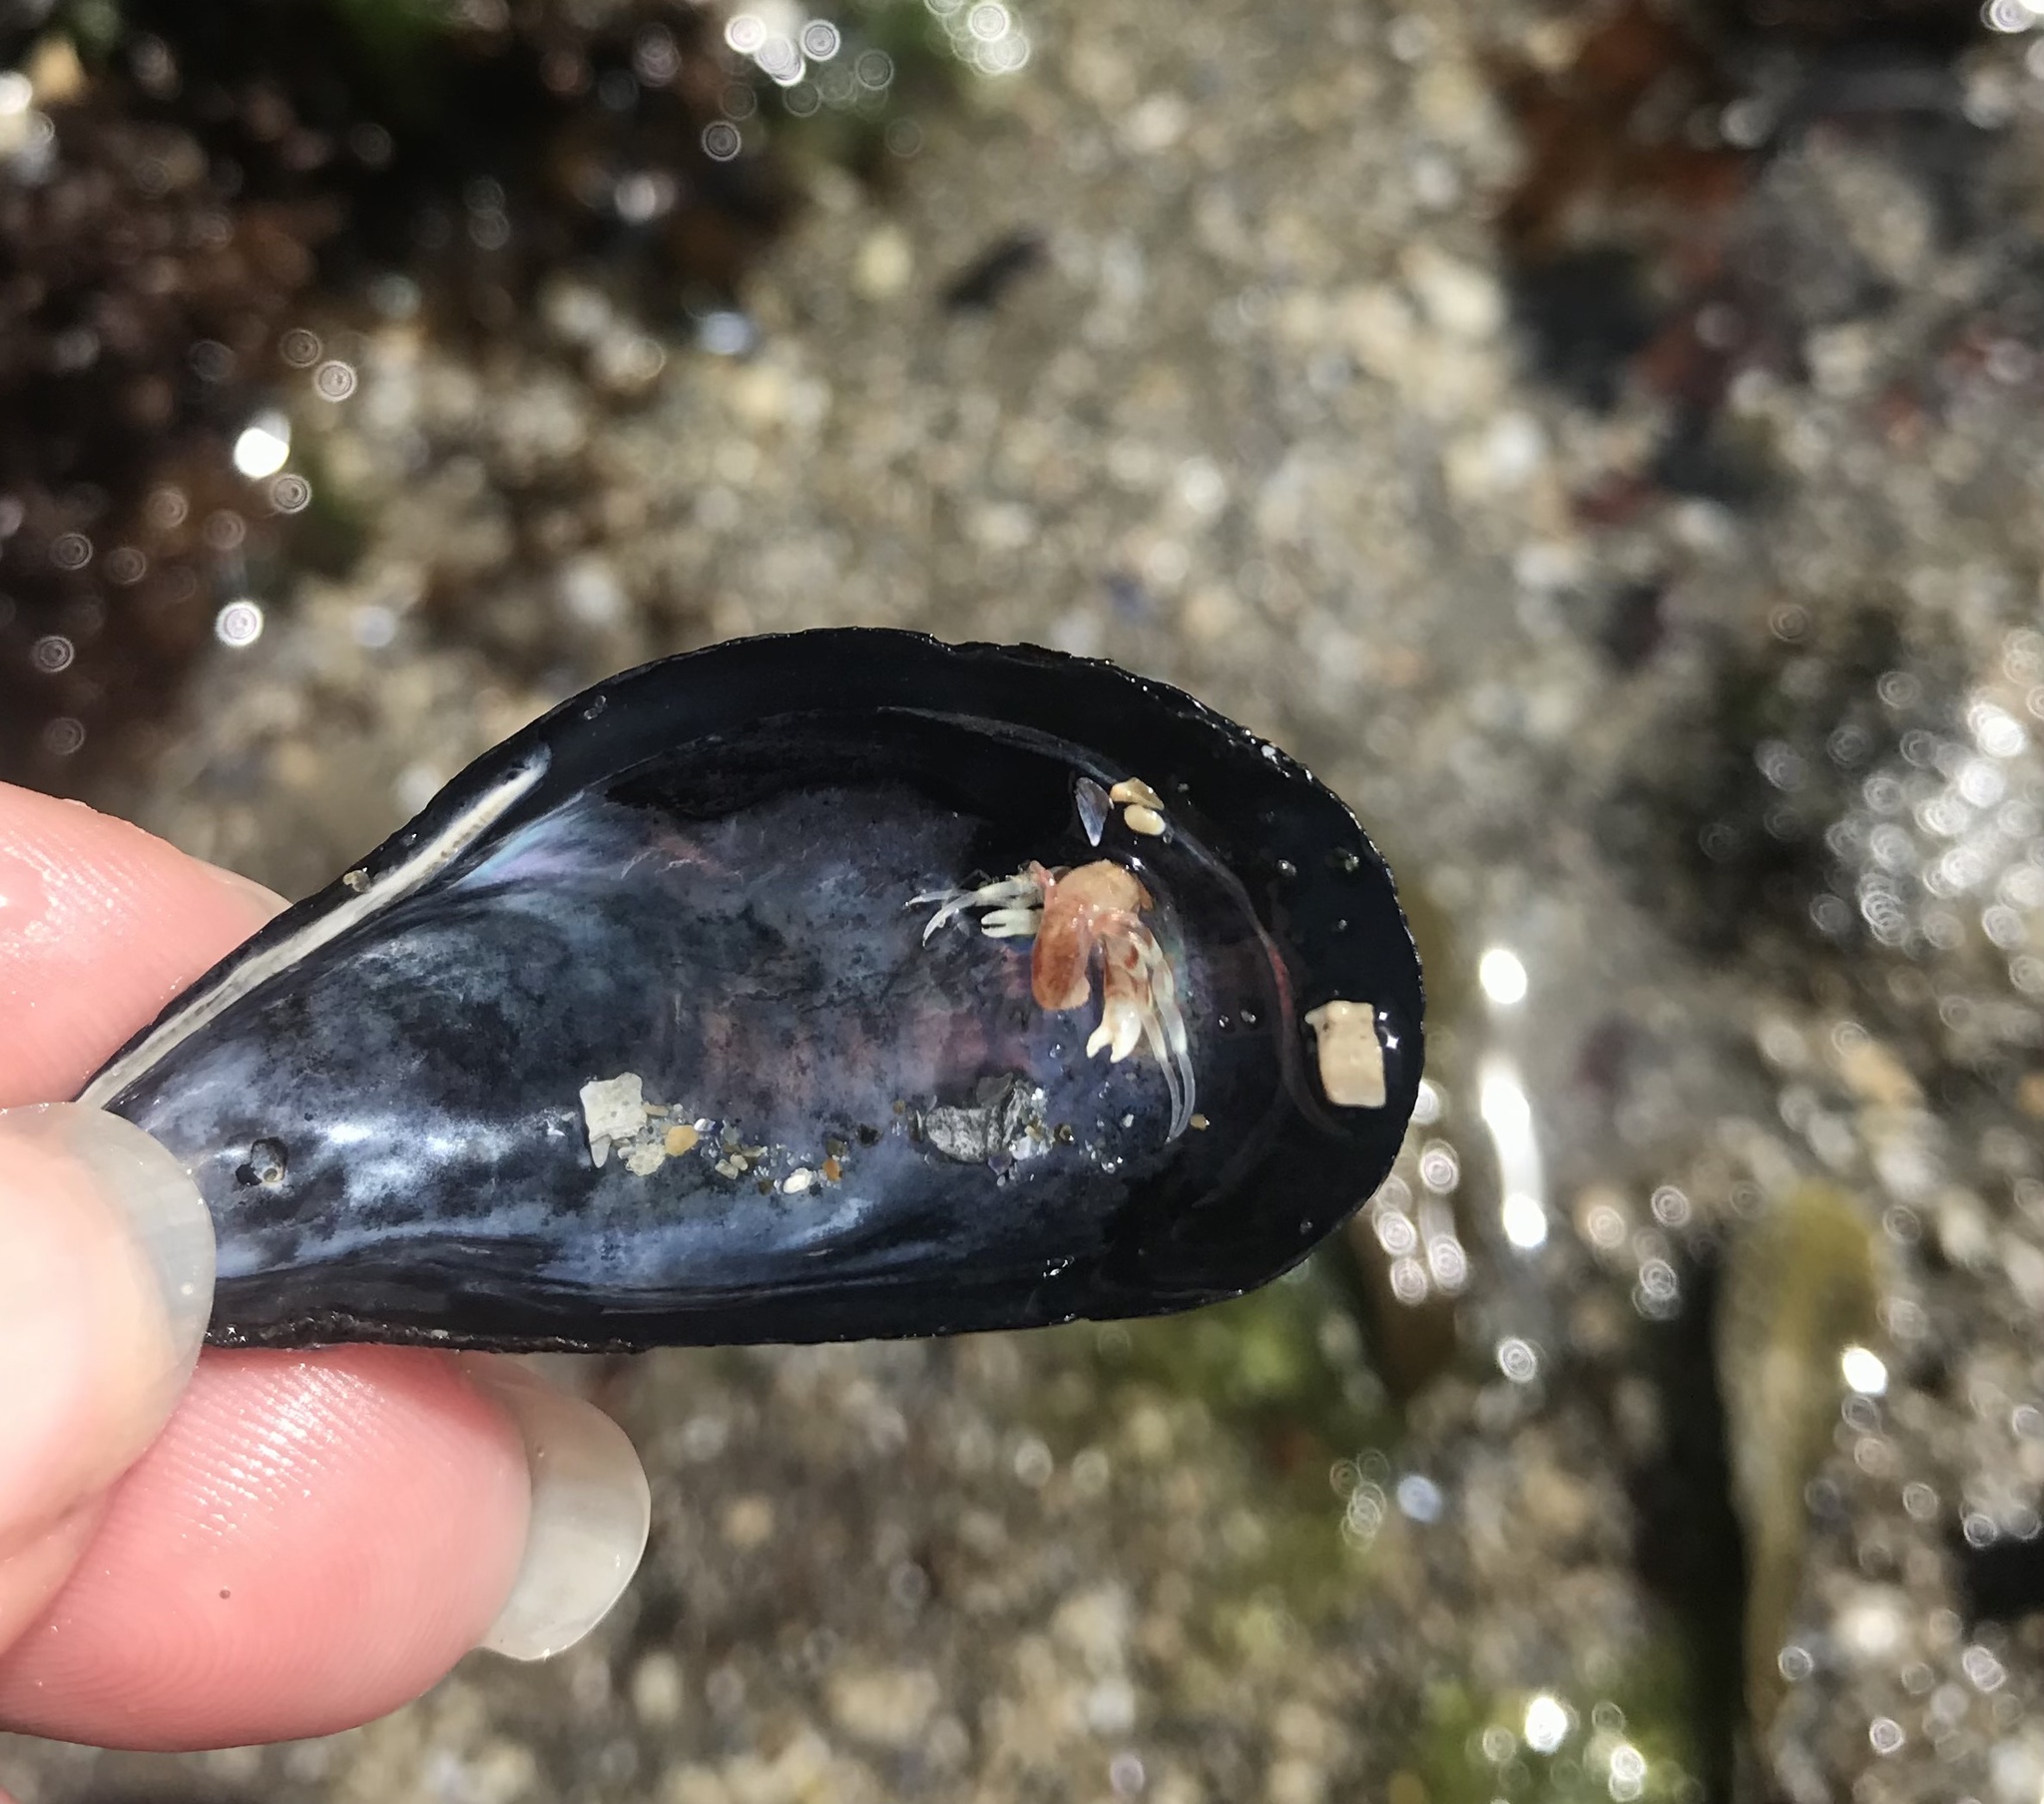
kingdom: Animalia
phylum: Arthropoda
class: Malacostraca
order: Decapoda
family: Paguridae
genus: Pagurus
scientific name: Pagurus longicarpus
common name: Long-armed hermit crab
